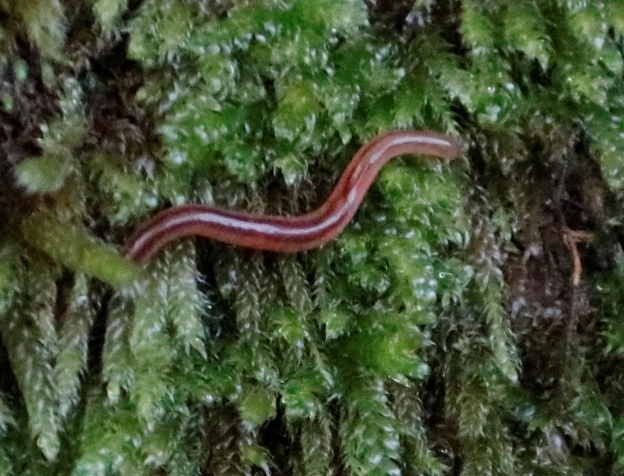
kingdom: Animalia
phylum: Platyhelminthes
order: Tricladida
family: Geoplanidae
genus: Statomicroplana
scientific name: Statomicroplana fuscum
